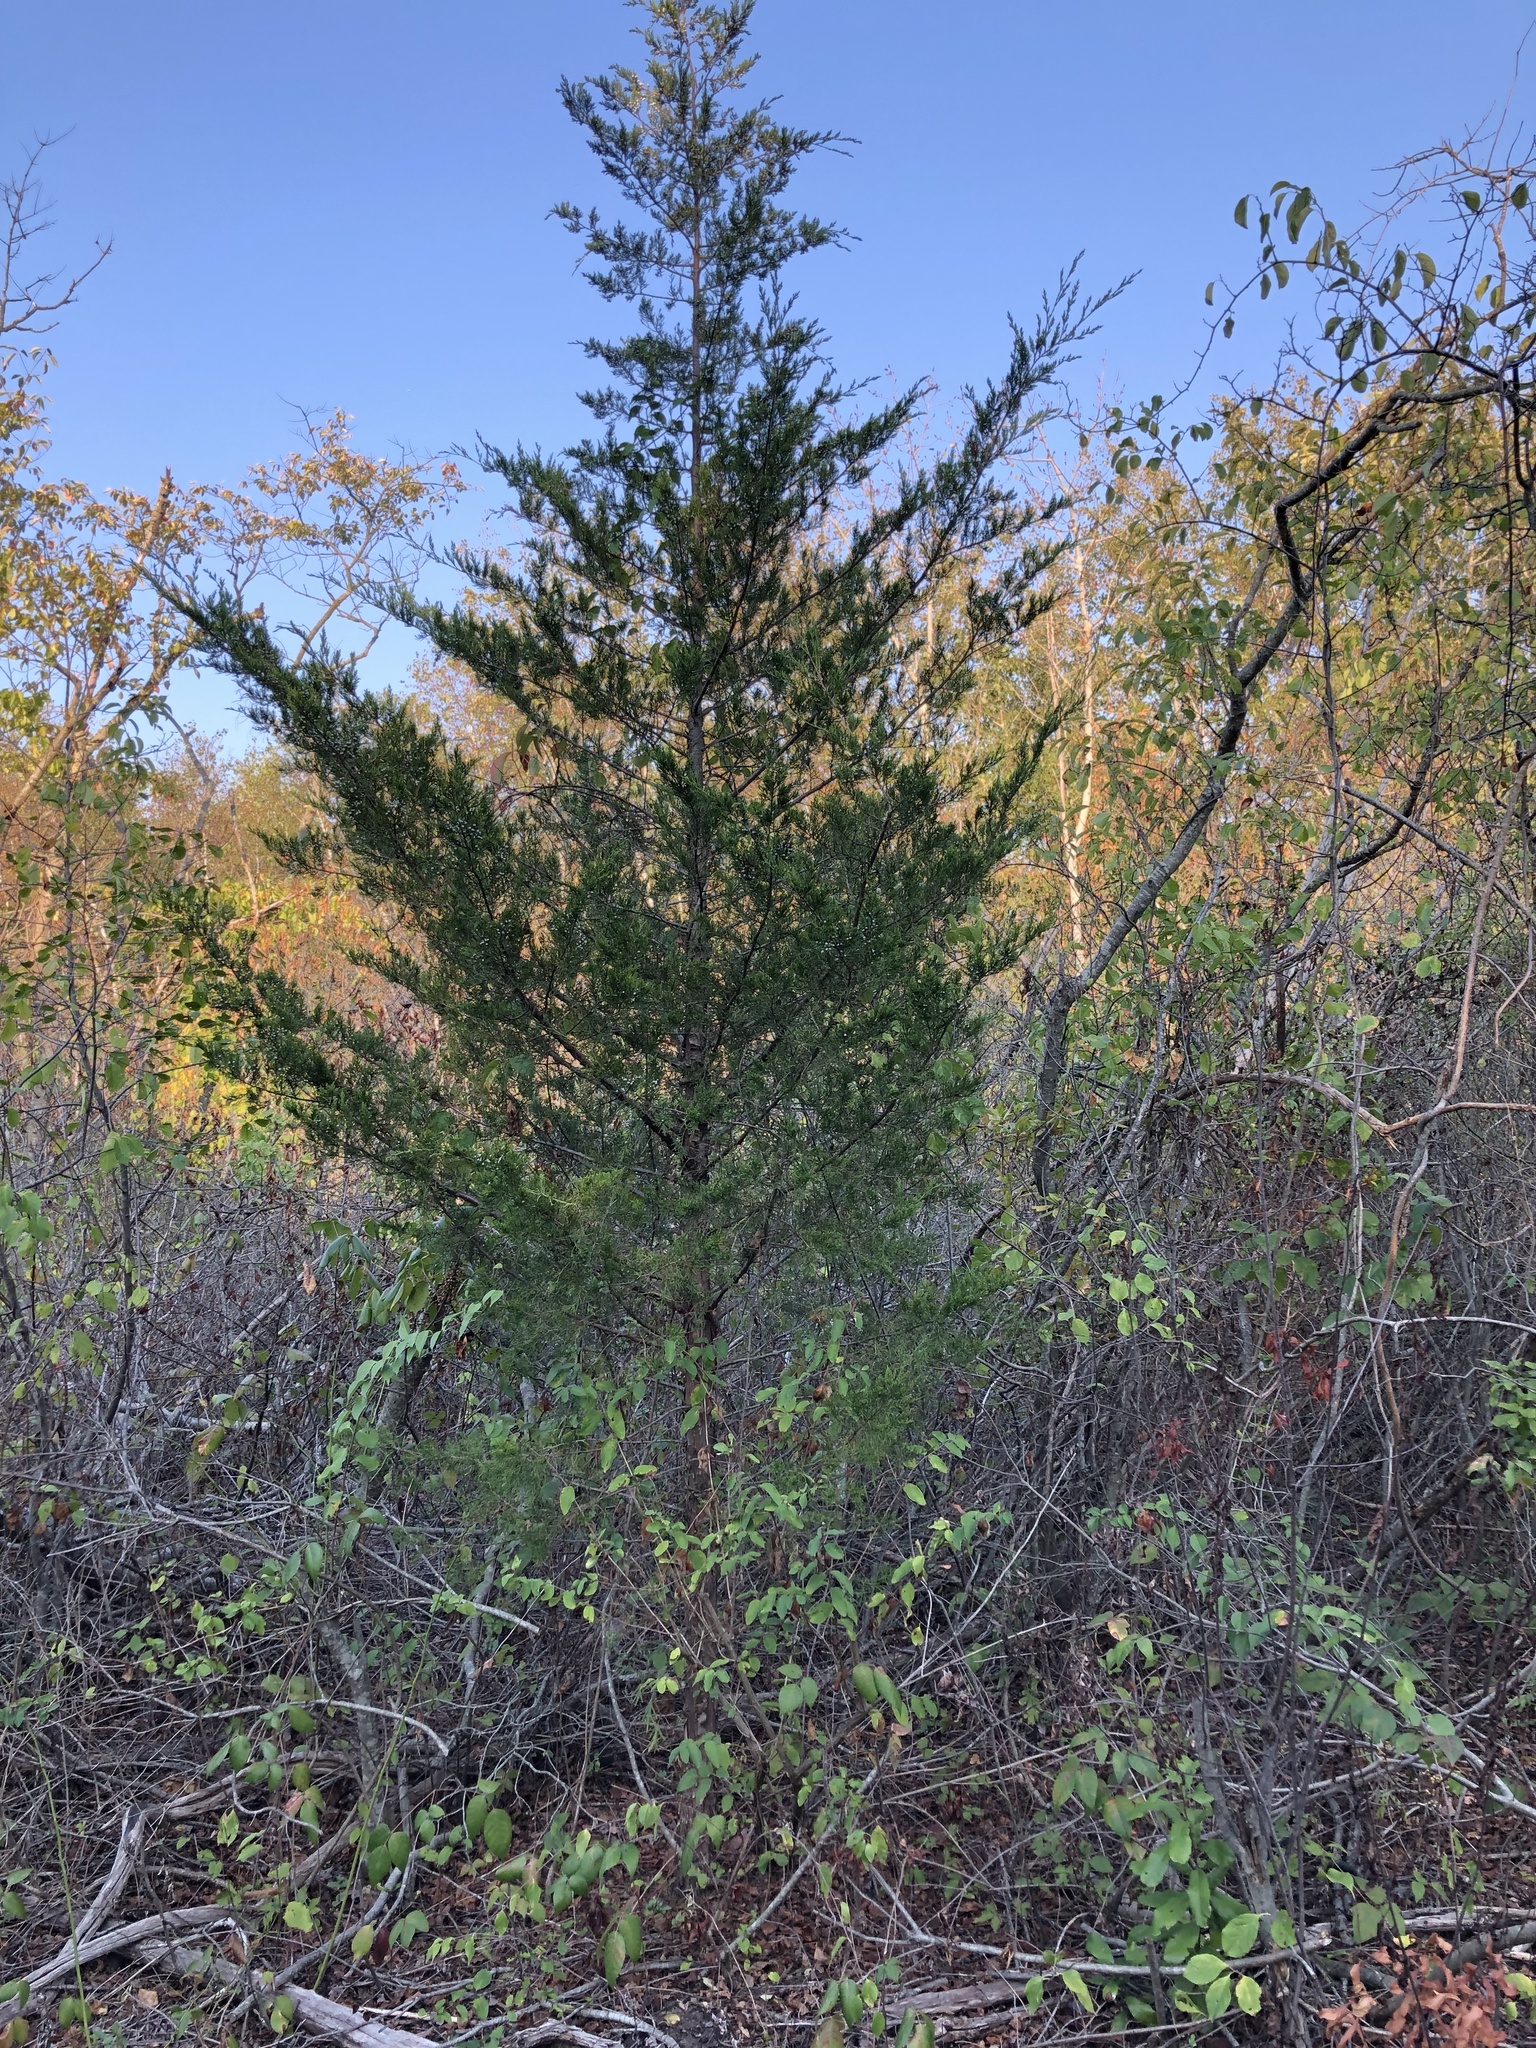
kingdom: Plantae
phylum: Tracheophyta
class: Pinopsida
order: Pinales
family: Cupressaceae
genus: Juniperus
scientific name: Juniperus virginiana
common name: Red juniper
